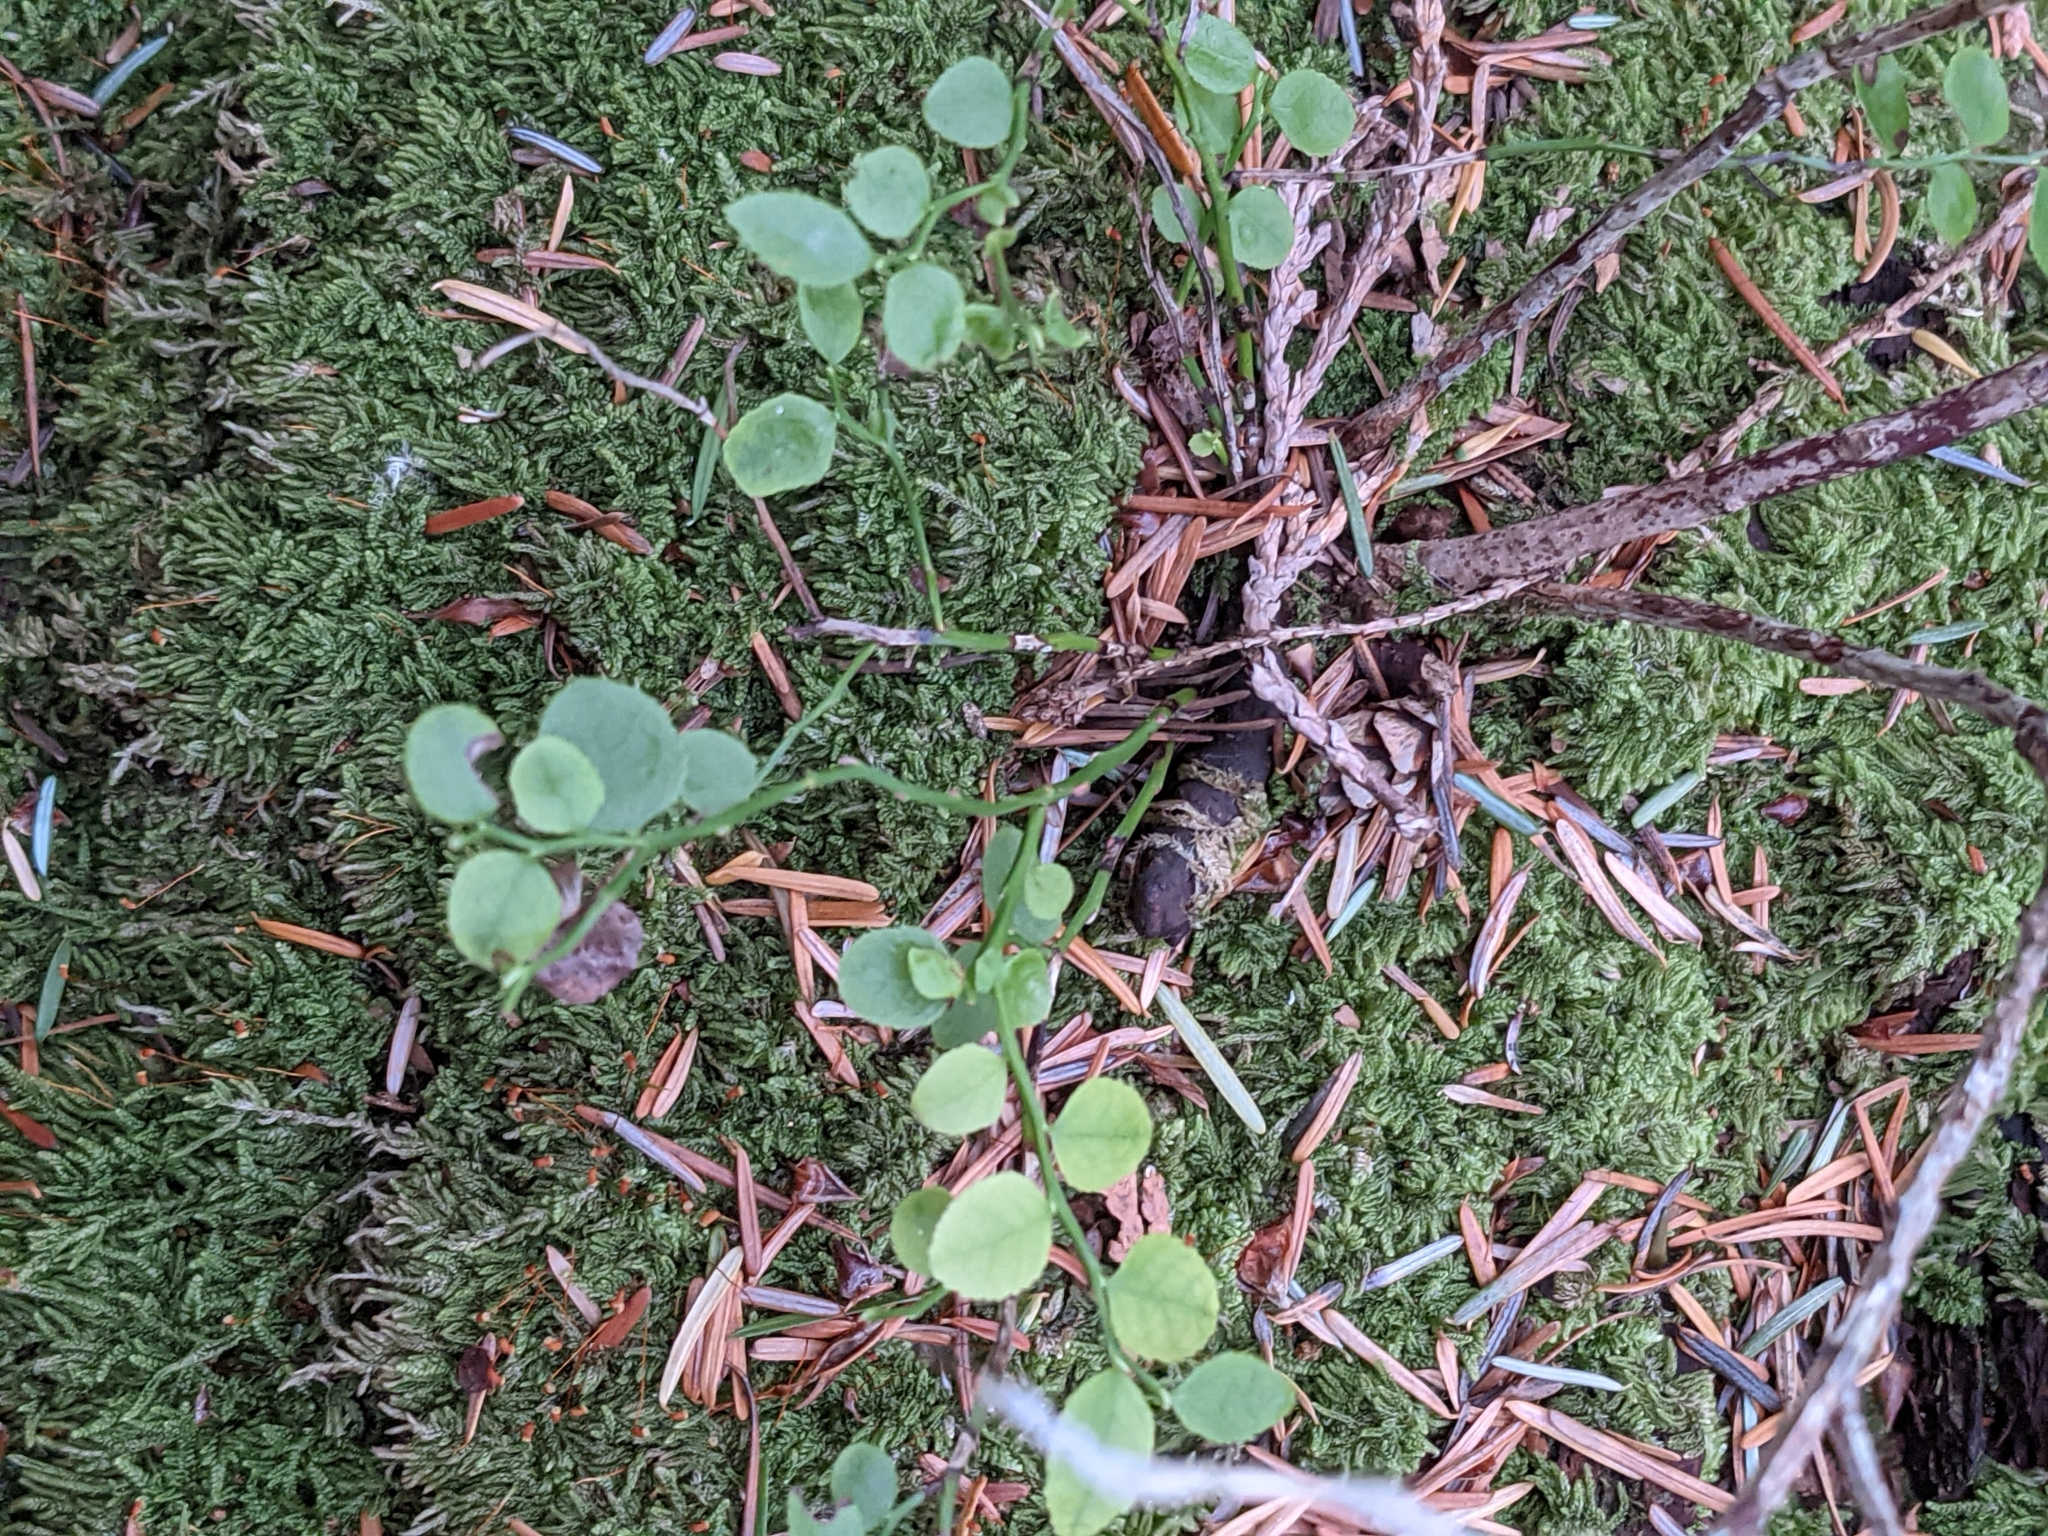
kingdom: Plantae
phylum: Tracheophyta
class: Magnoliopsida
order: Ericales
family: Ericaceae
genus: Vaccinium
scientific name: Vaccinium parvifolium
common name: Red-huckleberry
